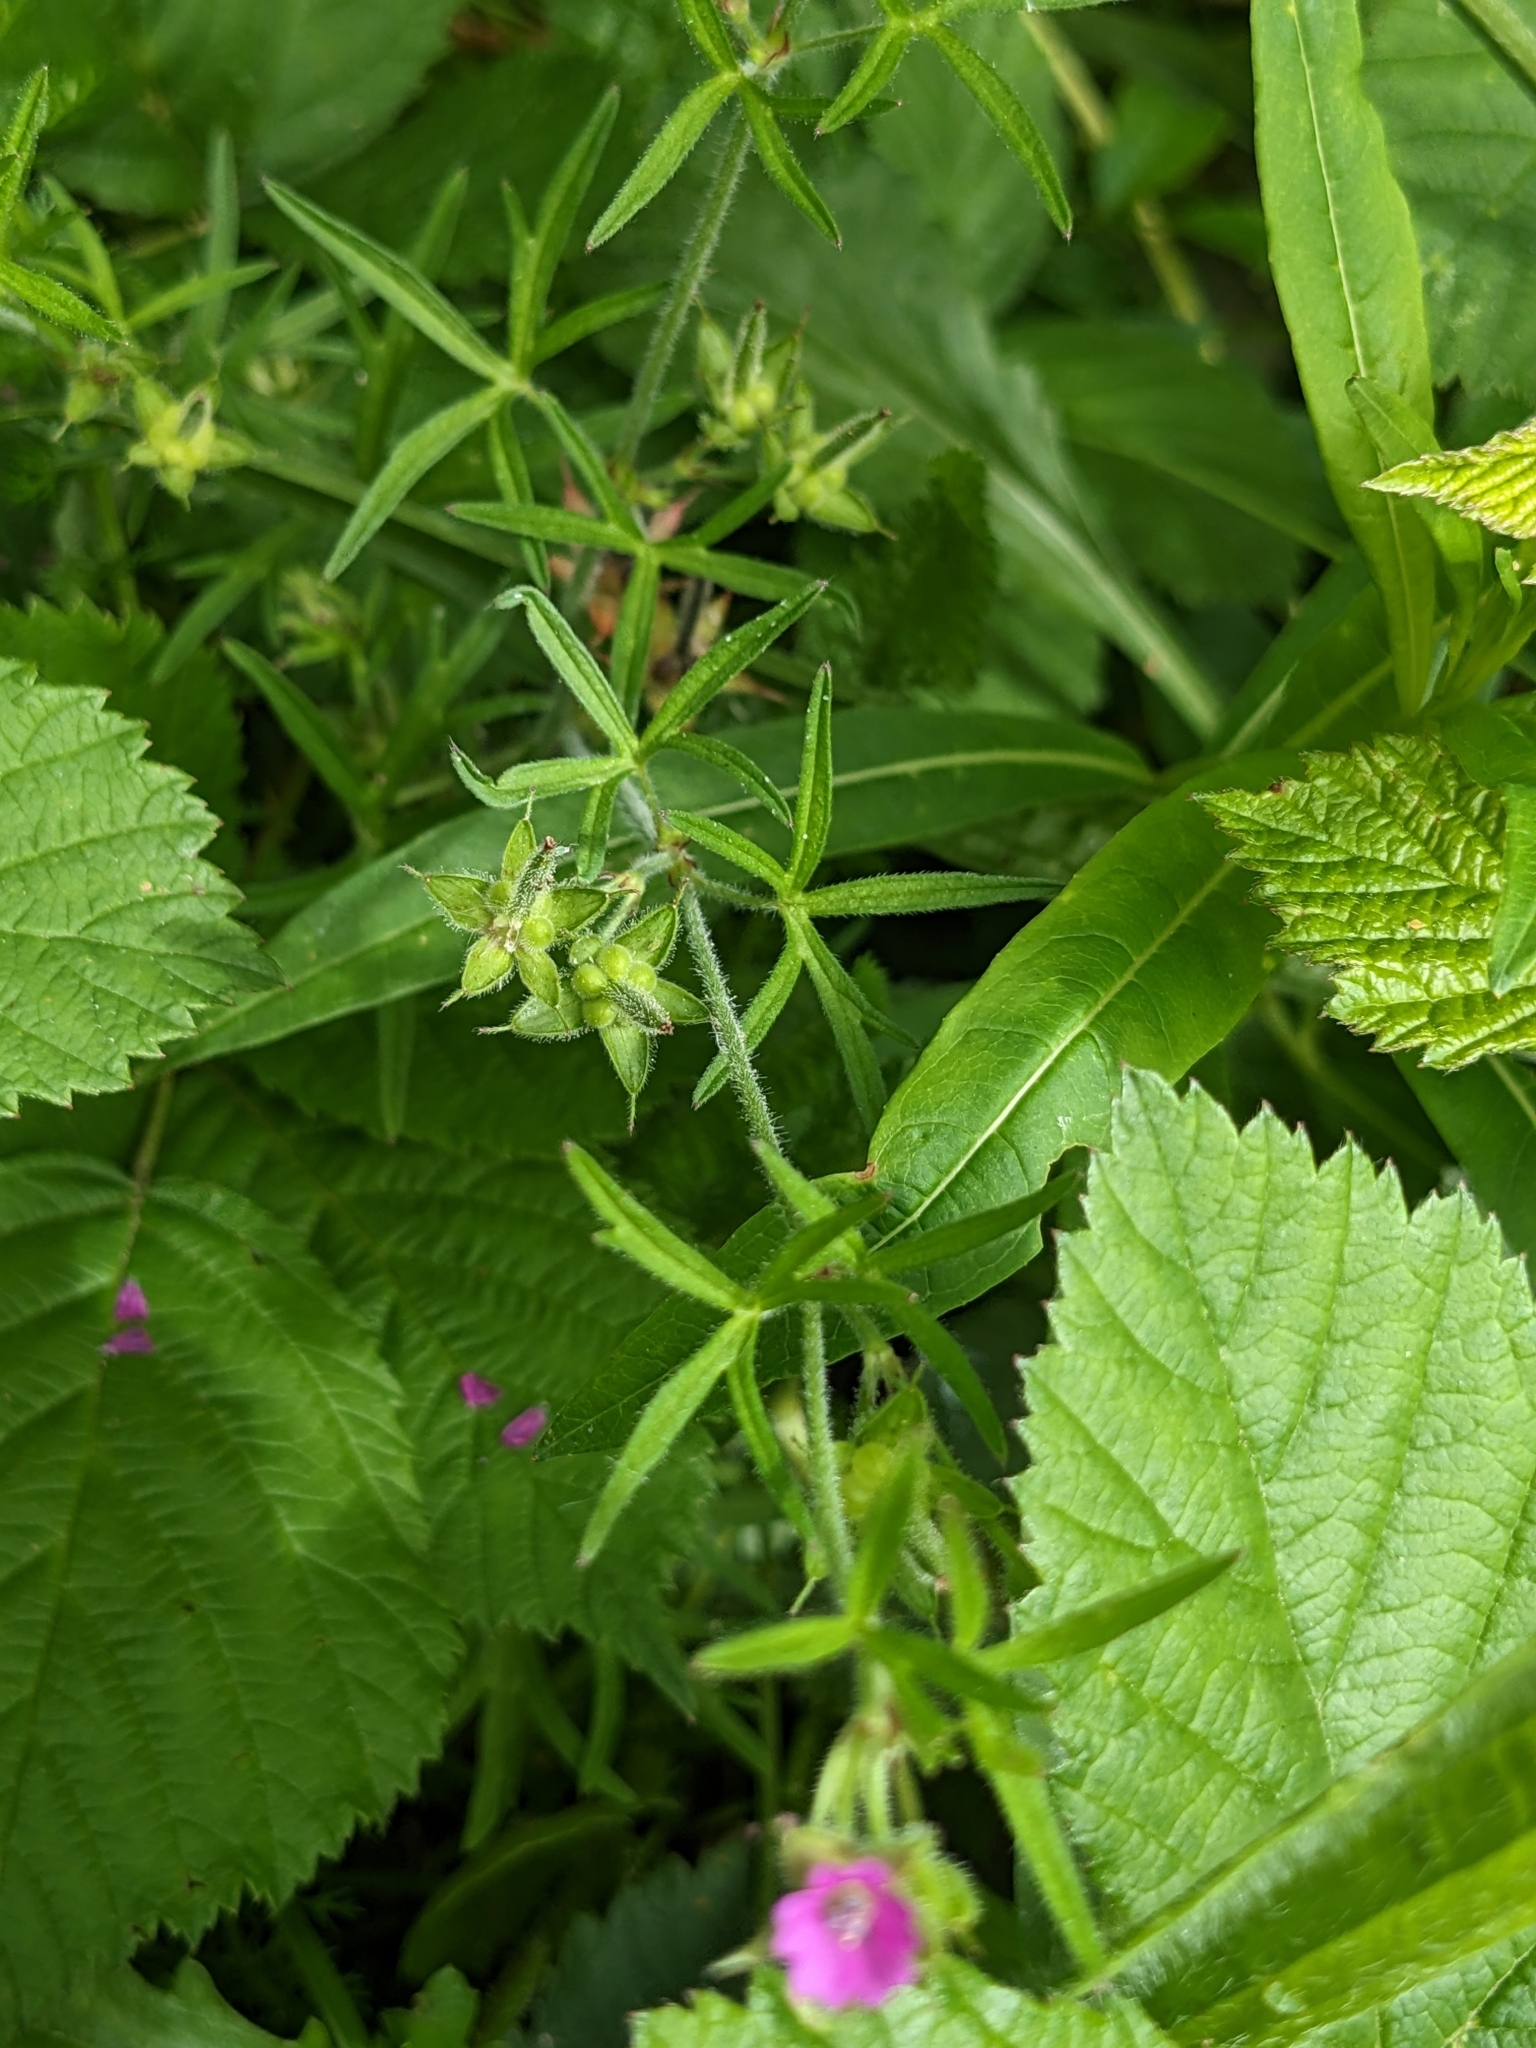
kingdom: Plantae
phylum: Tracheophyta
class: Magnoliopsida
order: Geraniales
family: Geraniaceae
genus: Geranium
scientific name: Geranium dissectum
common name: Cut-leaved crane's-bill
